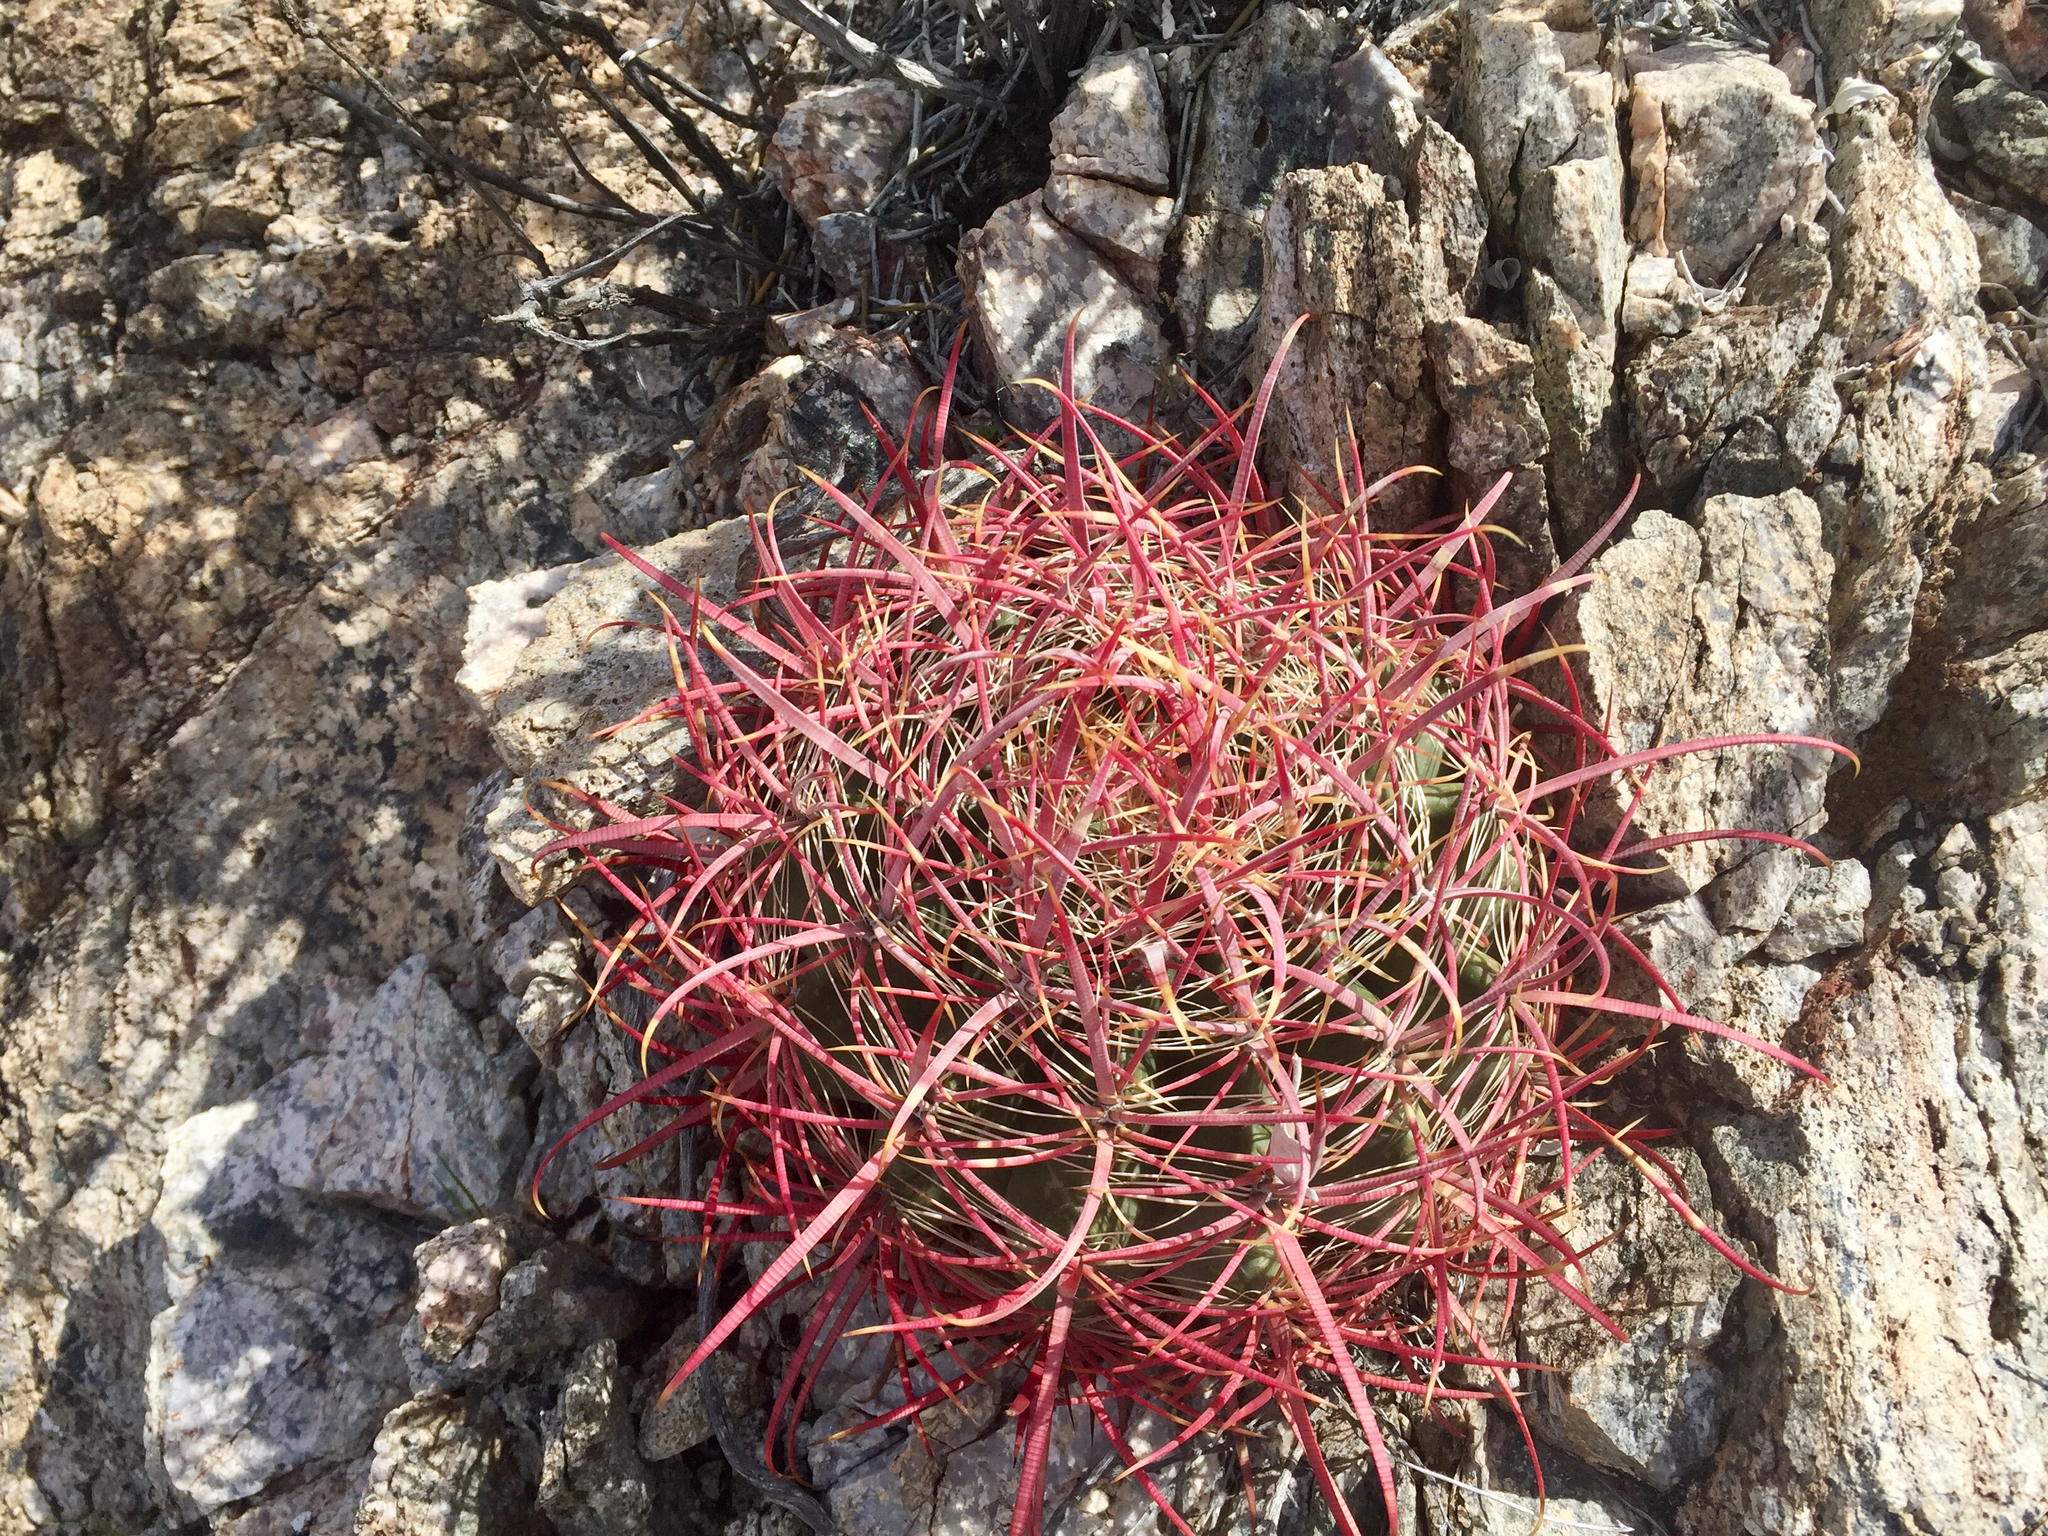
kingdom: Plantae
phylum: Tracheophyta
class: Magnoliopsida
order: Caryophyllales
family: Cactaceae
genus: Ferocactus
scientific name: Ferocactus cylindraceus
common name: California barrel cactus
